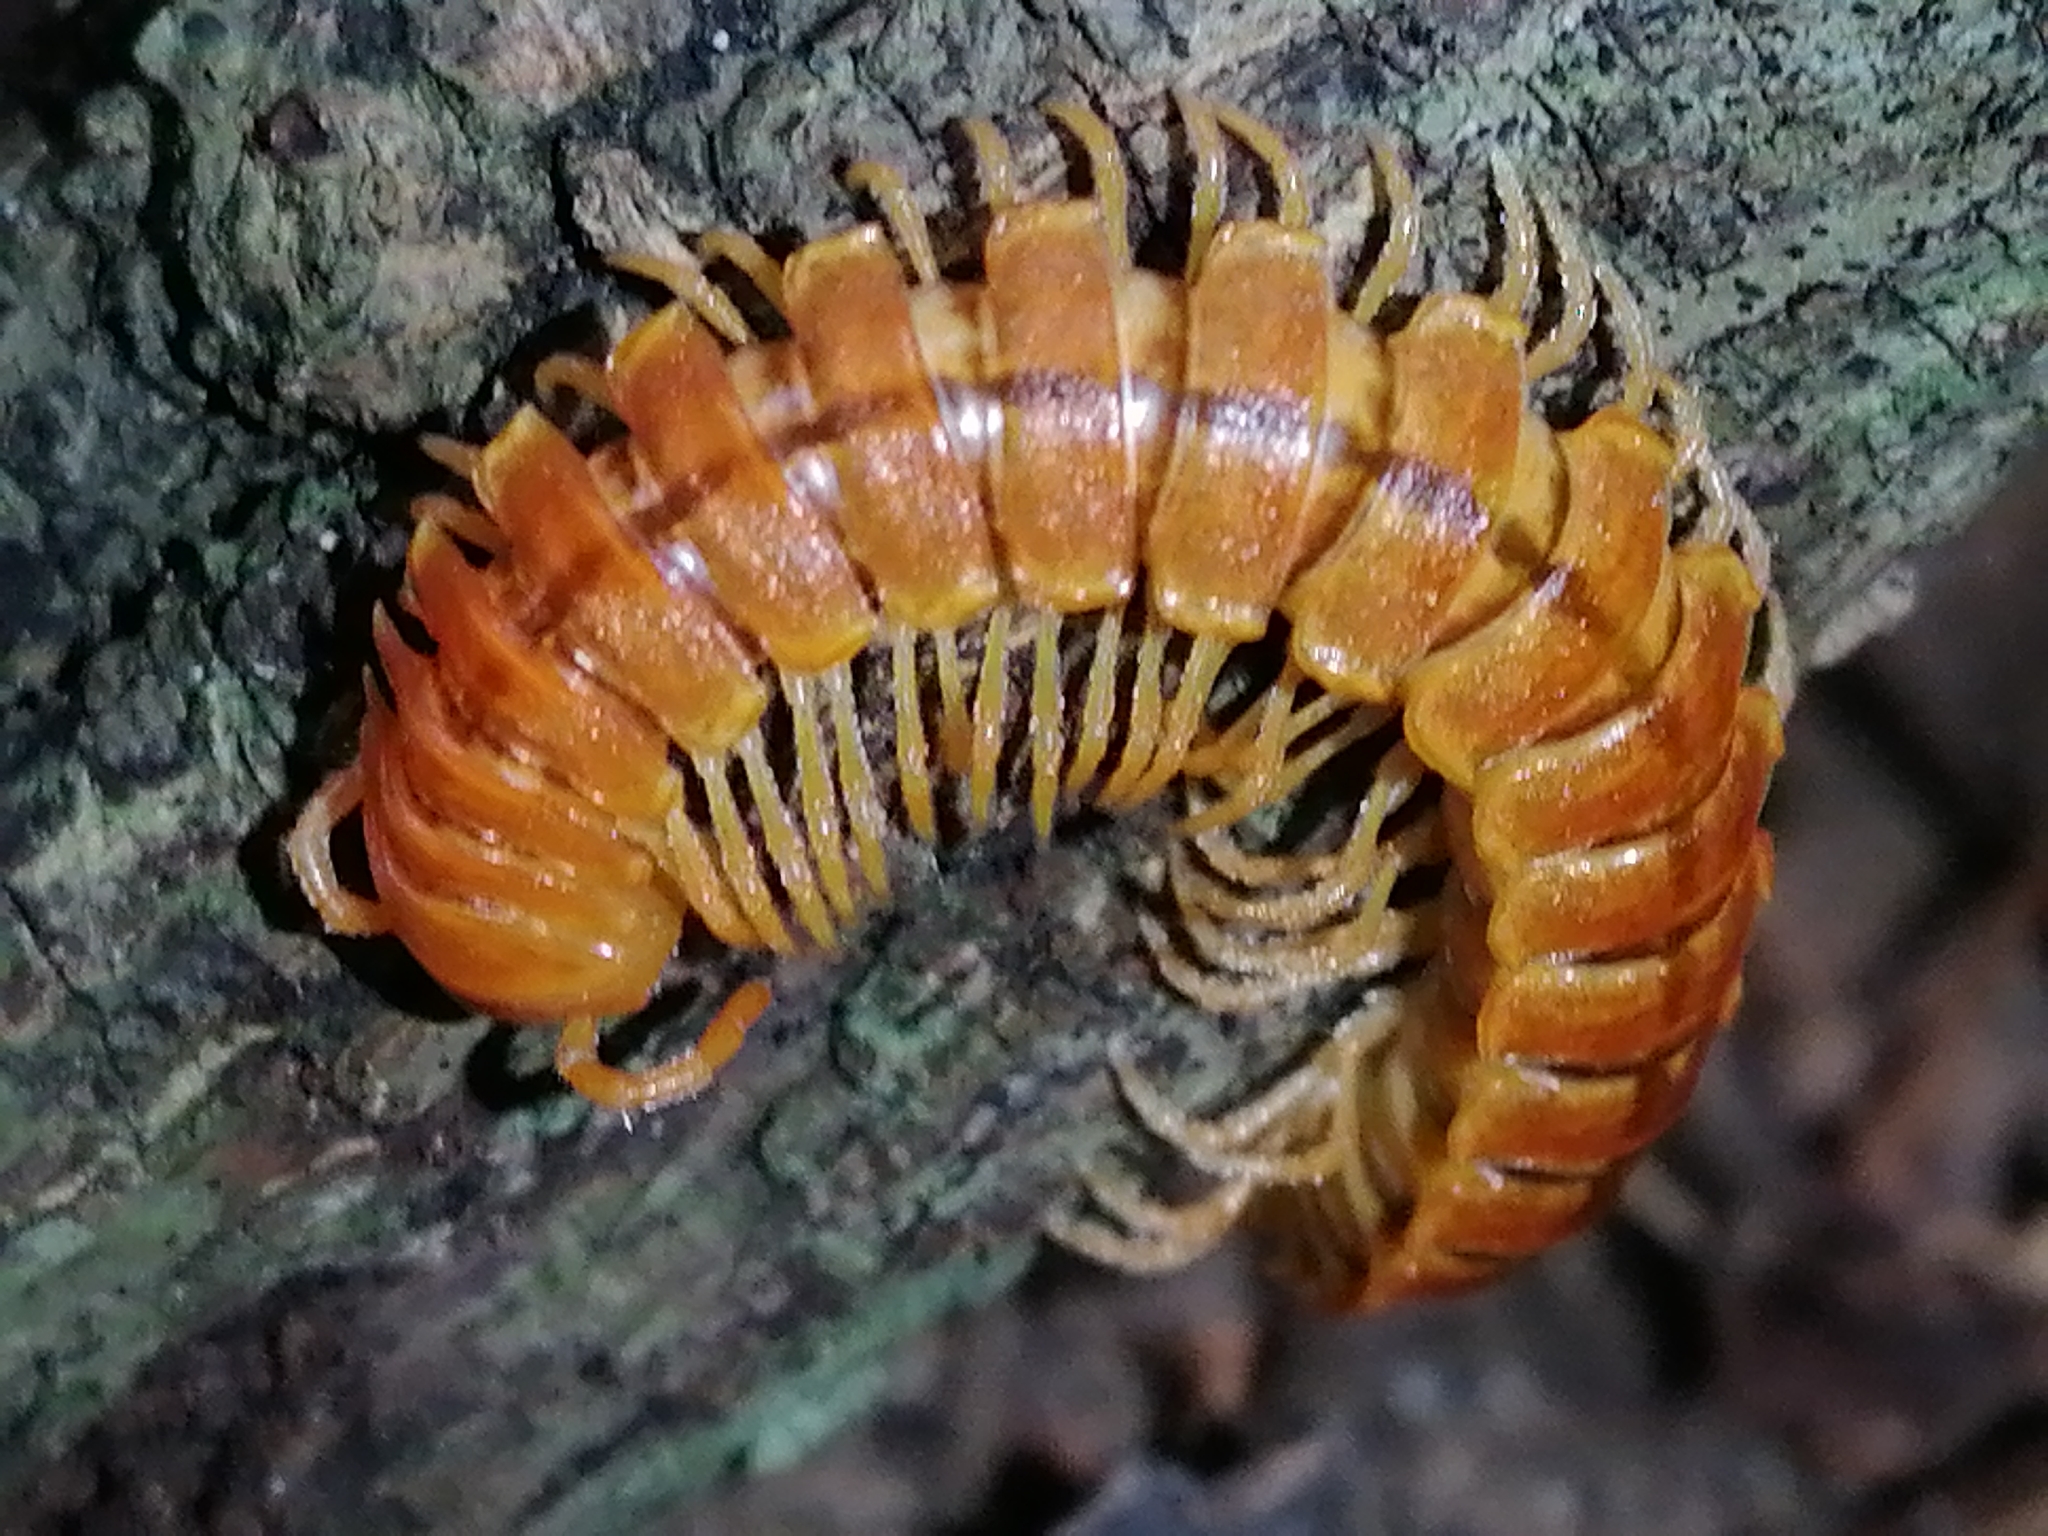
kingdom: Animalia
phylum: Arthropoda
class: Diplopoda
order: Polydesmida
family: Rhachodesmidae
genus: Aceratophallus
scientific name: Aceratophallus maya
